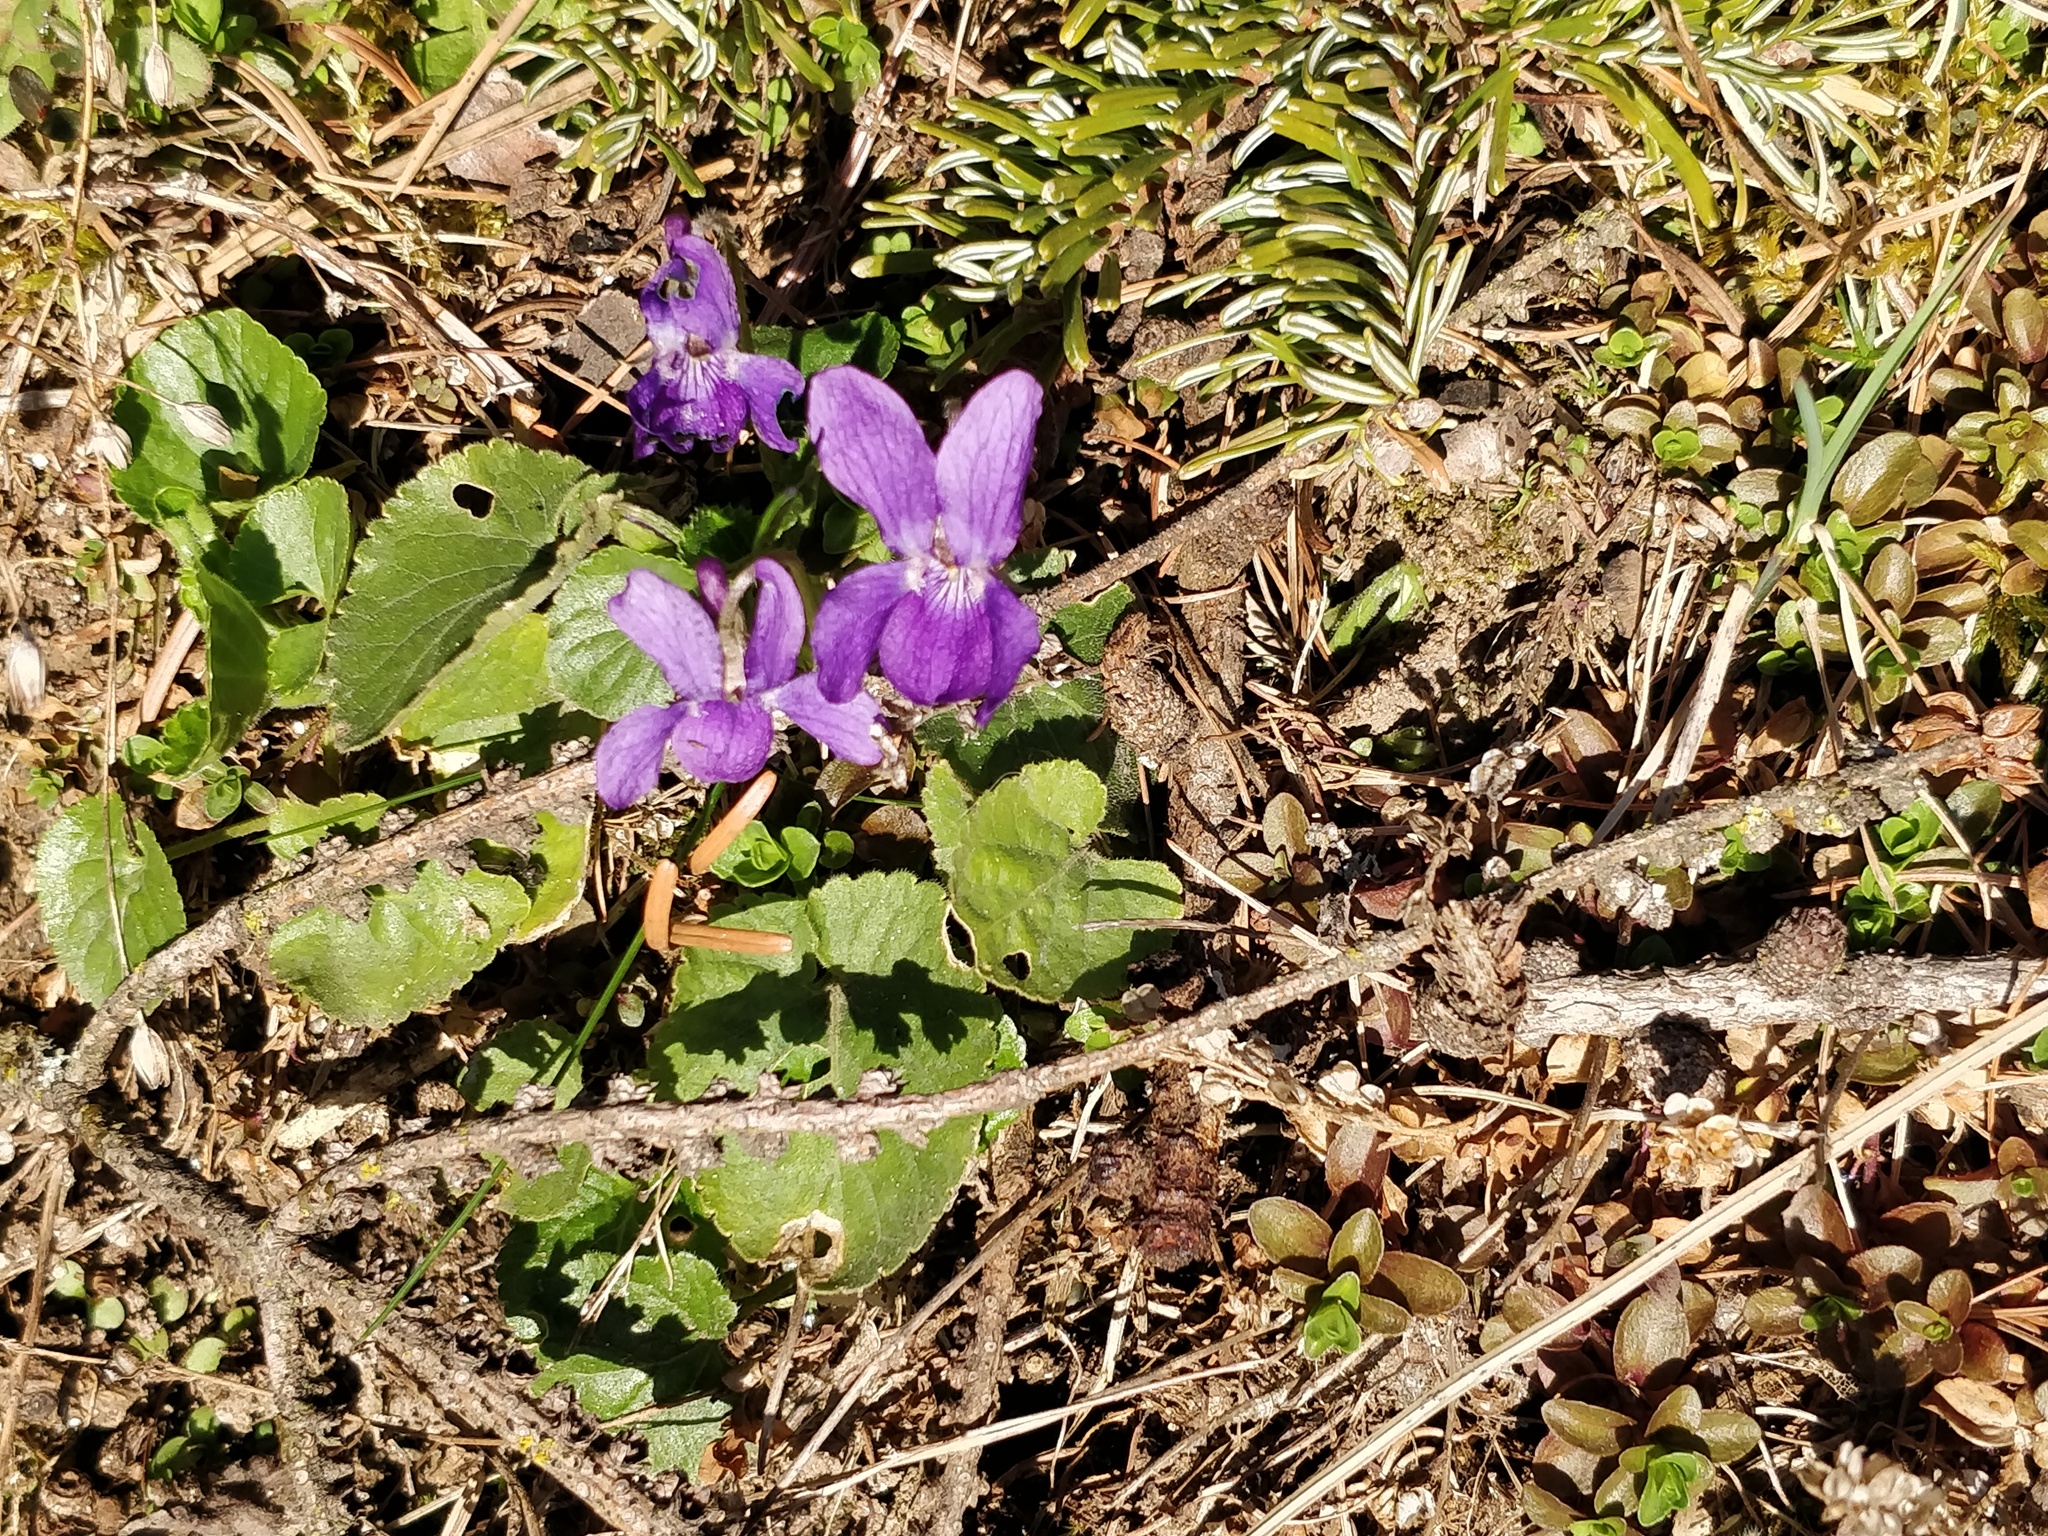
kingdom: Plantae
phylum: Tracheophyta
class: Magnoliopsida
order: Malpighiales
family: Violaceae
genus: Viola
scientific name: Viola odorata
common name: Sweet violet
